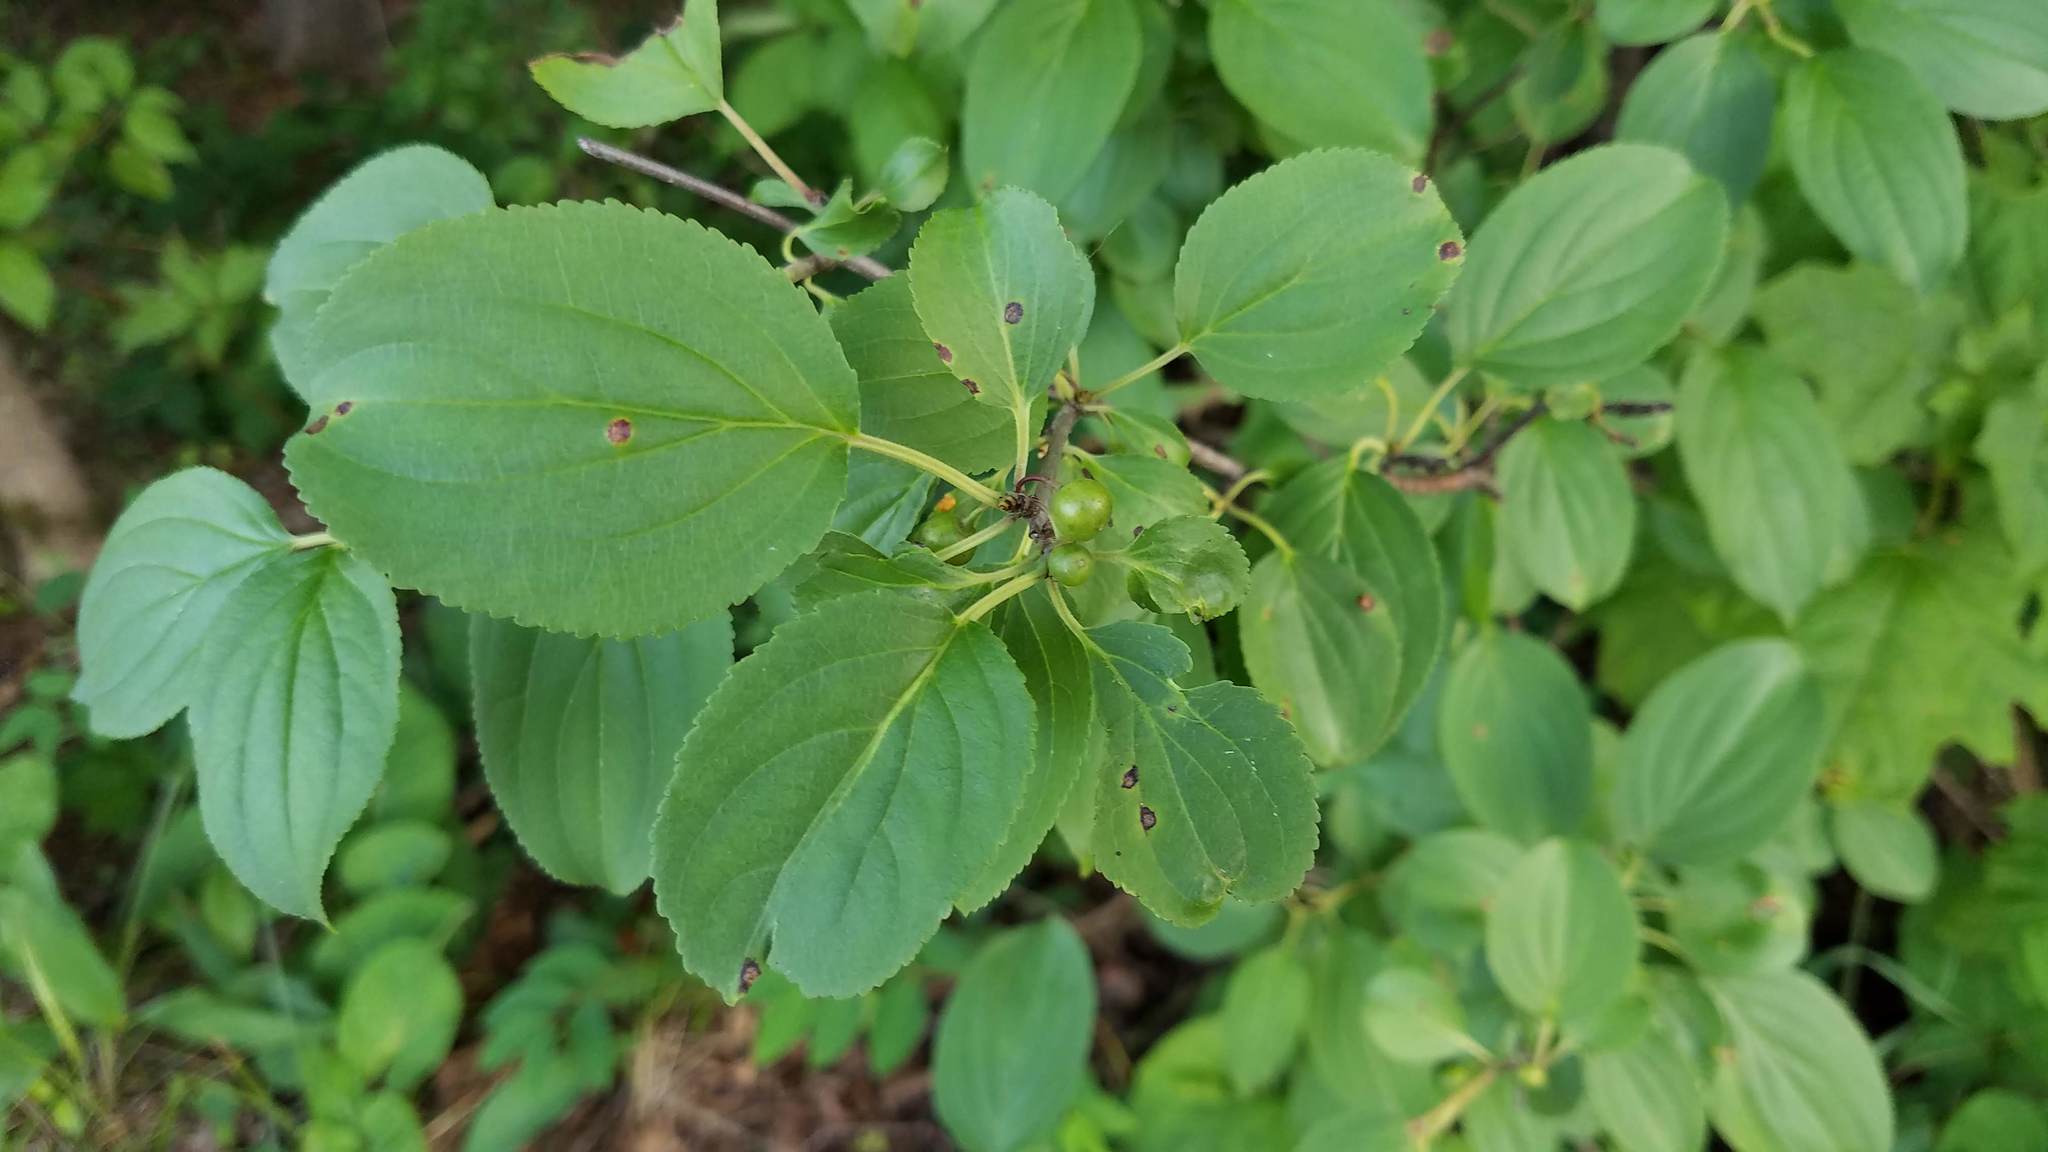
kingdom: Plantae
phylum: Tracheophyta
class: Magnoliopsida
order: Rosales
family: Rhamnaceae
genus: Rhamnus
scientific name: Rhamnus cathartica
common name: Common buckthorn
